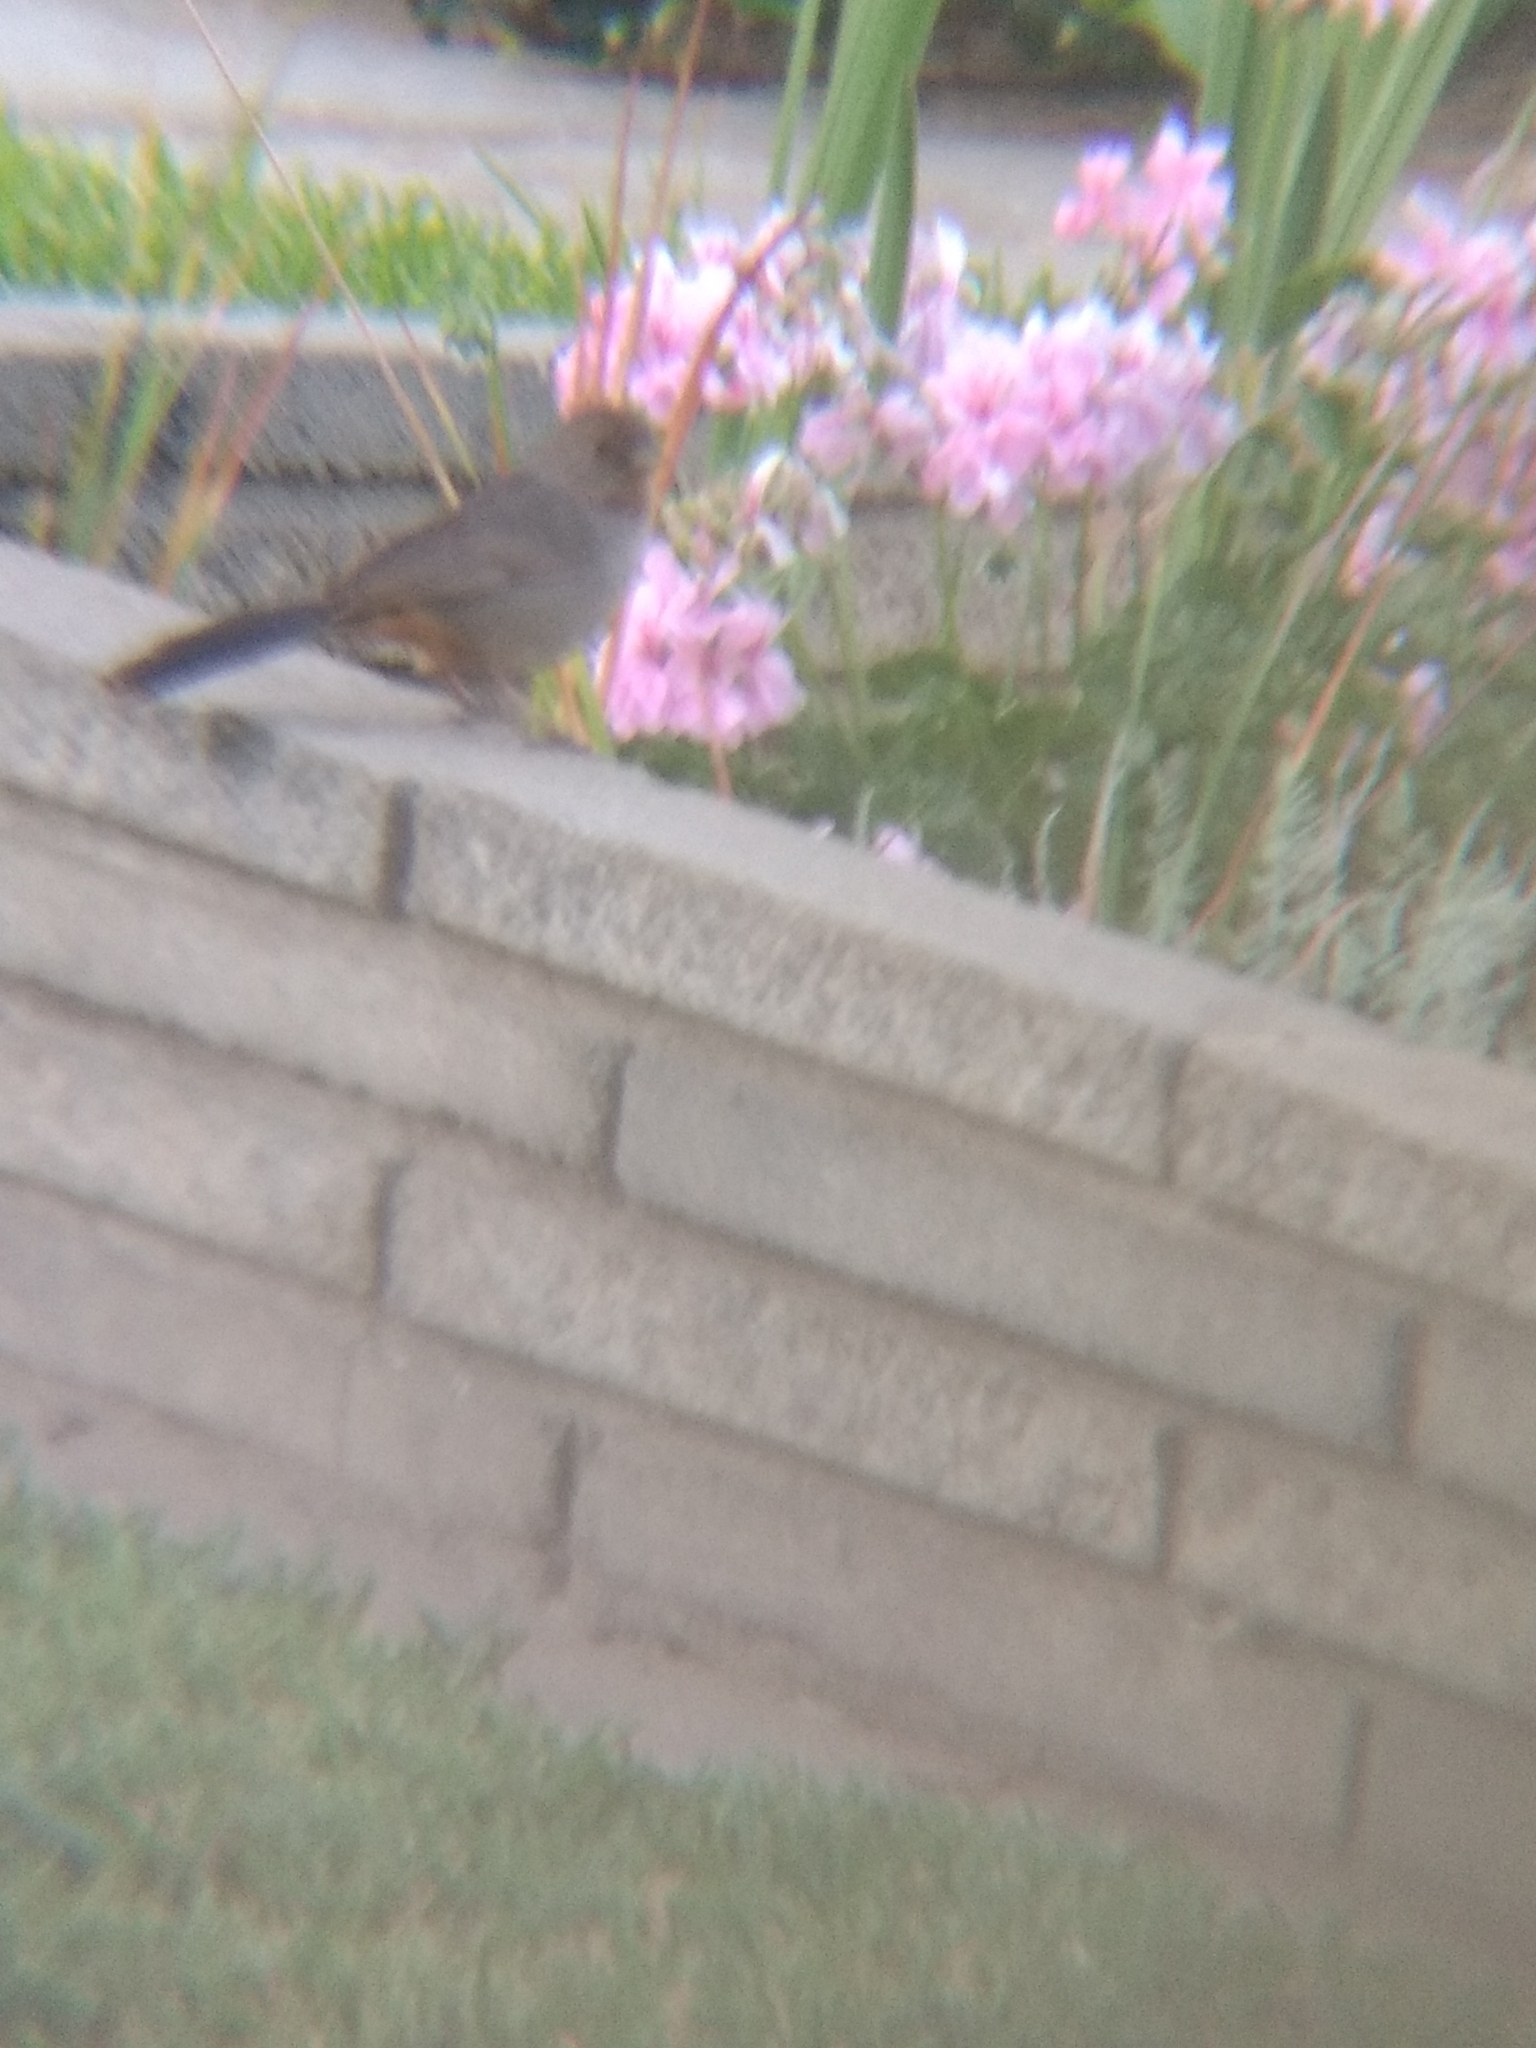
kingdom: Animalia
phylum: Chordata
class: Aves
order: Passeriformes
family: Passerellidae
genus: Melozone
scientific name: Melozone crissalis
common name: California towhee
